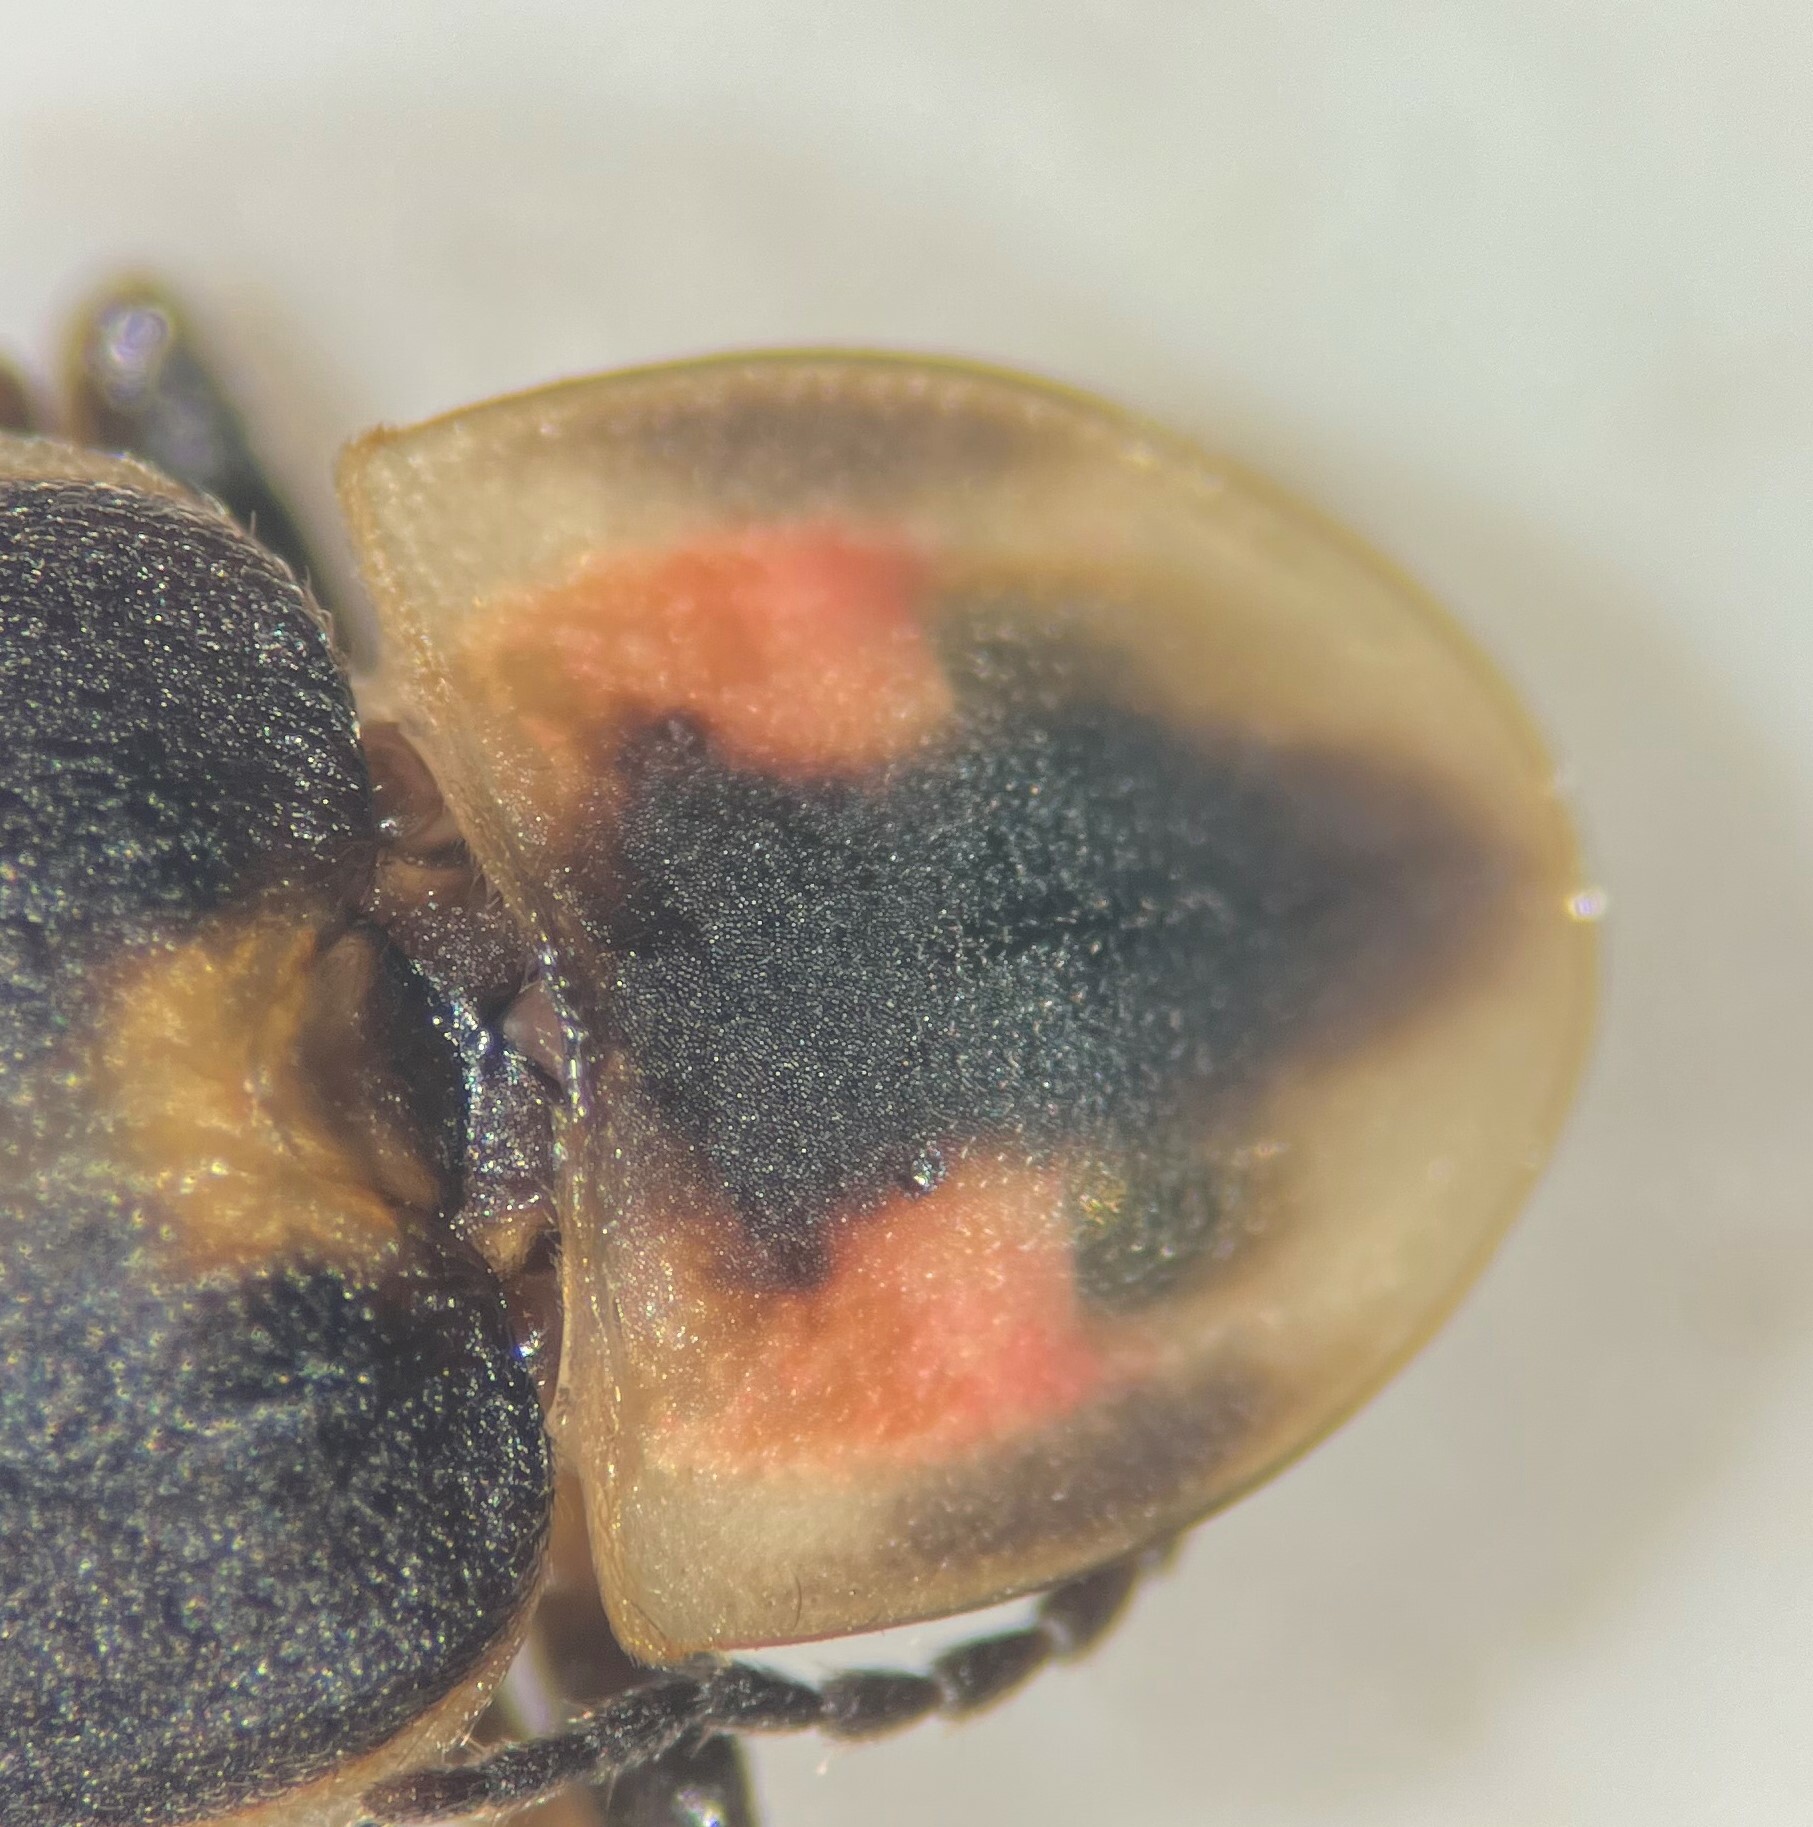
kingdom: Animalia
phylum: Arthropoda
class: Insecta
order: Coleoptera
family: Lampyridae
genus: Pyractomena
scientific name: Pyractomena lucifera
